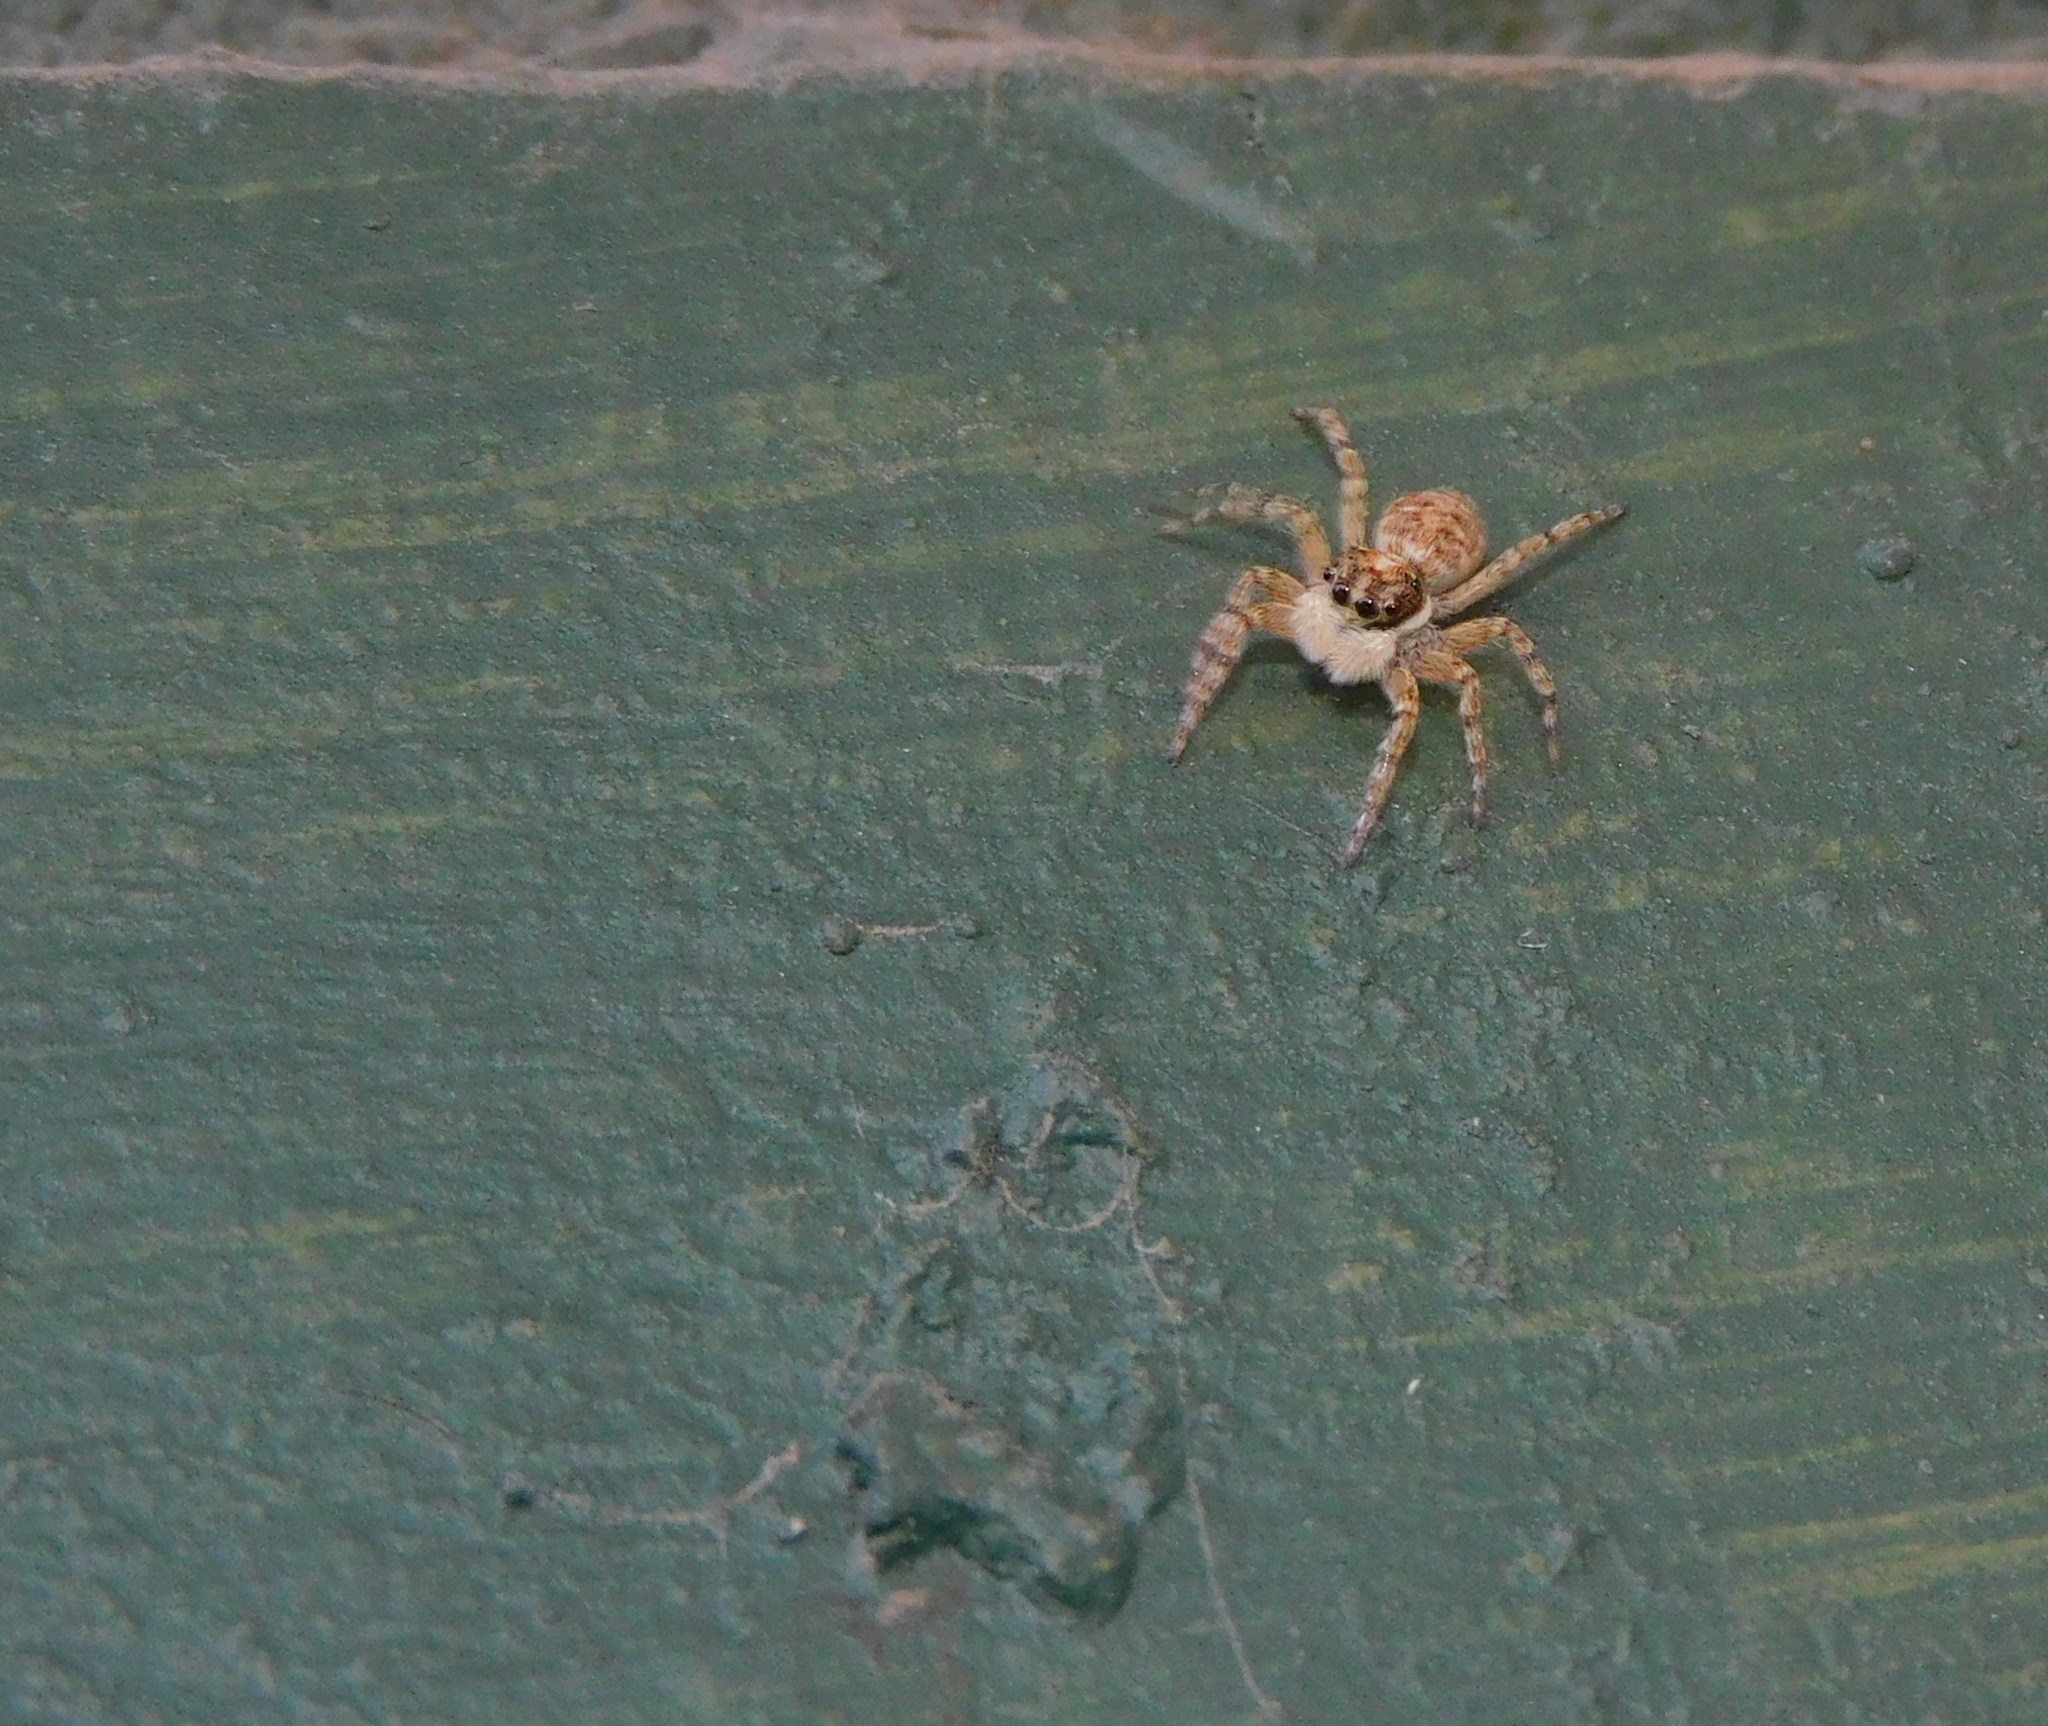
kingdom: Animalia
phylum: Arthropoda
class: Arachnida
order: Araneae
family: Salticidae
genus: Menemerus
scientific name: Menemerus semilimbatus
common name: Jumping spider
